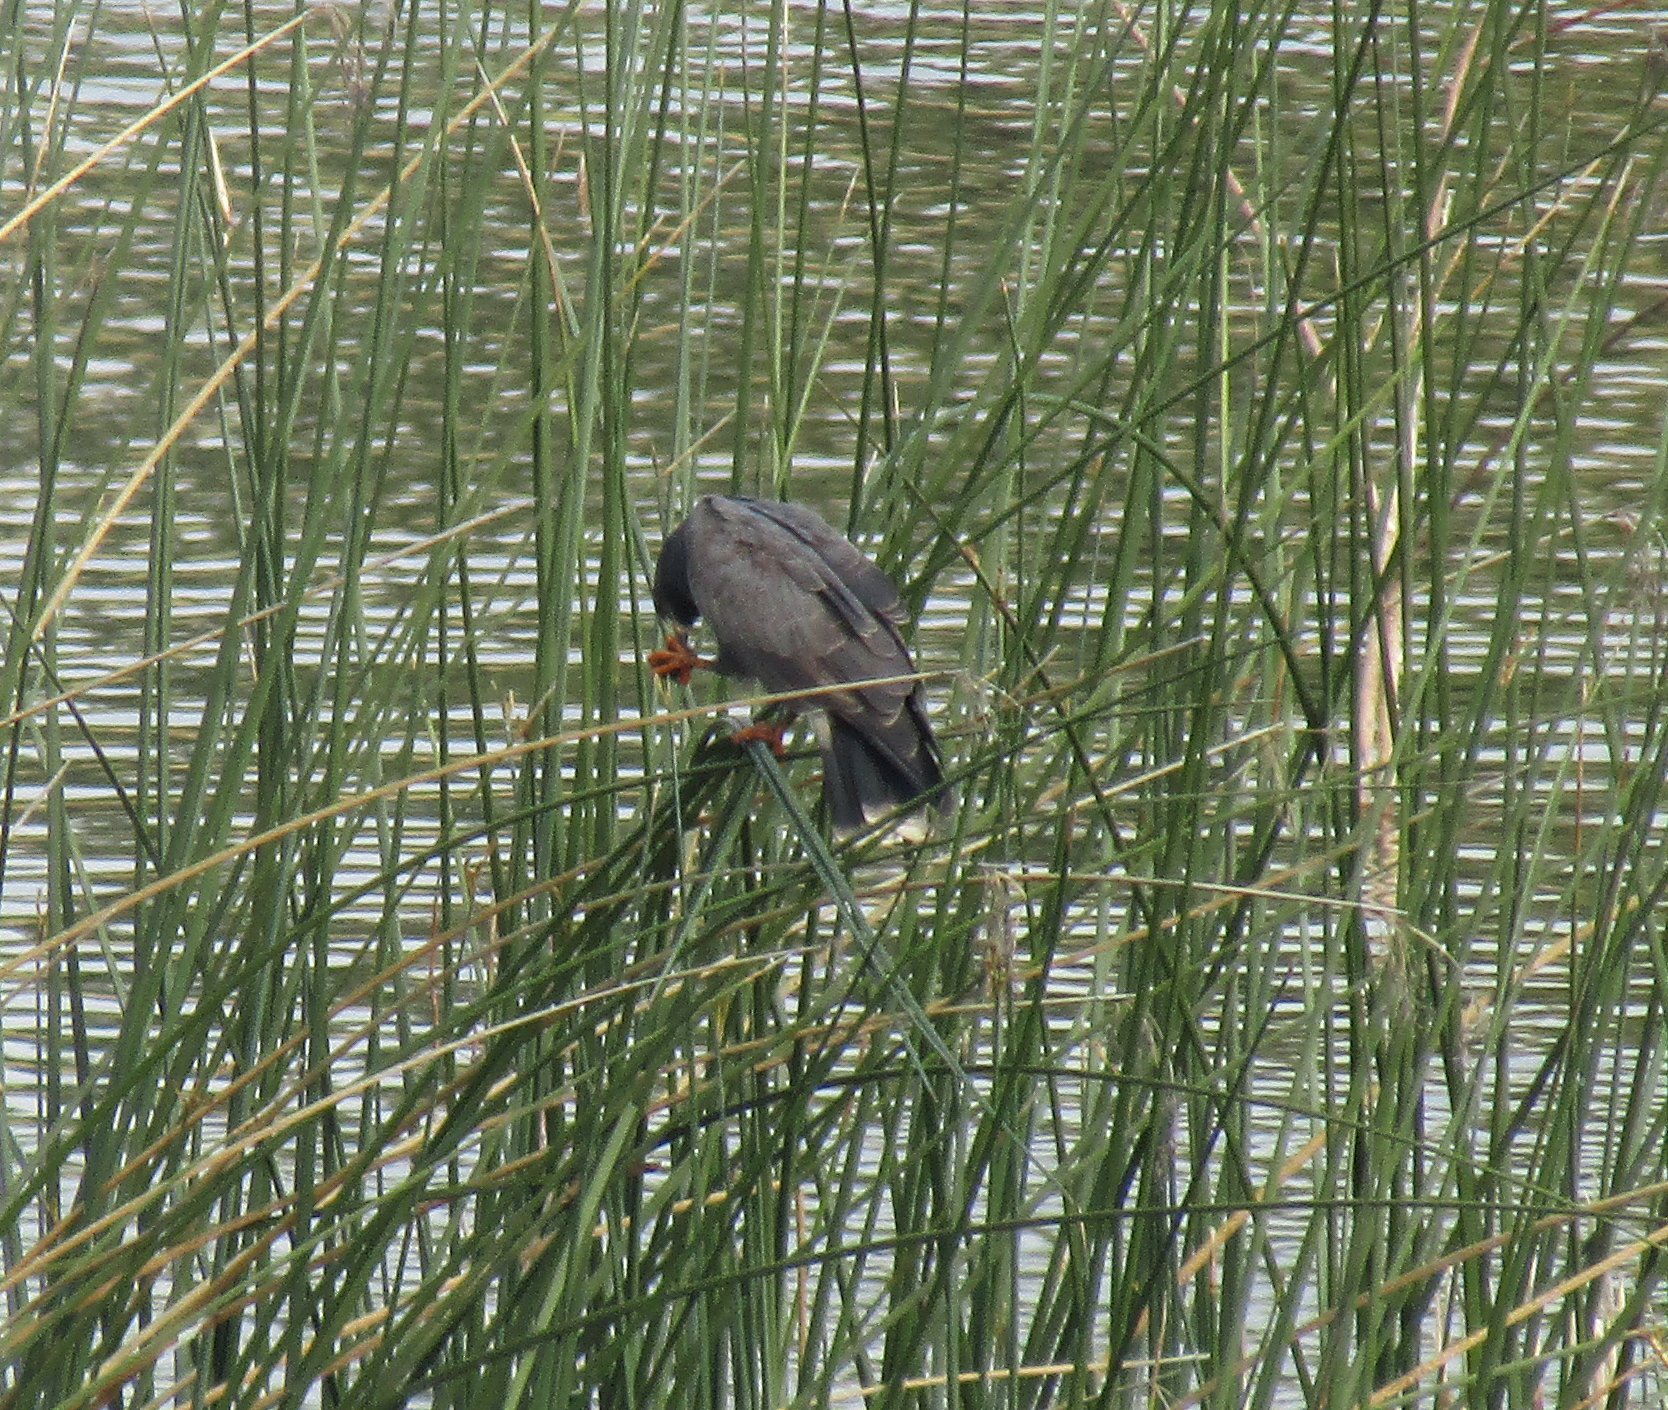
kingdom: Animalia
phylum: Chordata
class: Aves
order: Accipitriformes
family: Accipitridae
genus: Rostrhamus
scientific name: Rostrhamus sociabilis
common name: Snail kite
